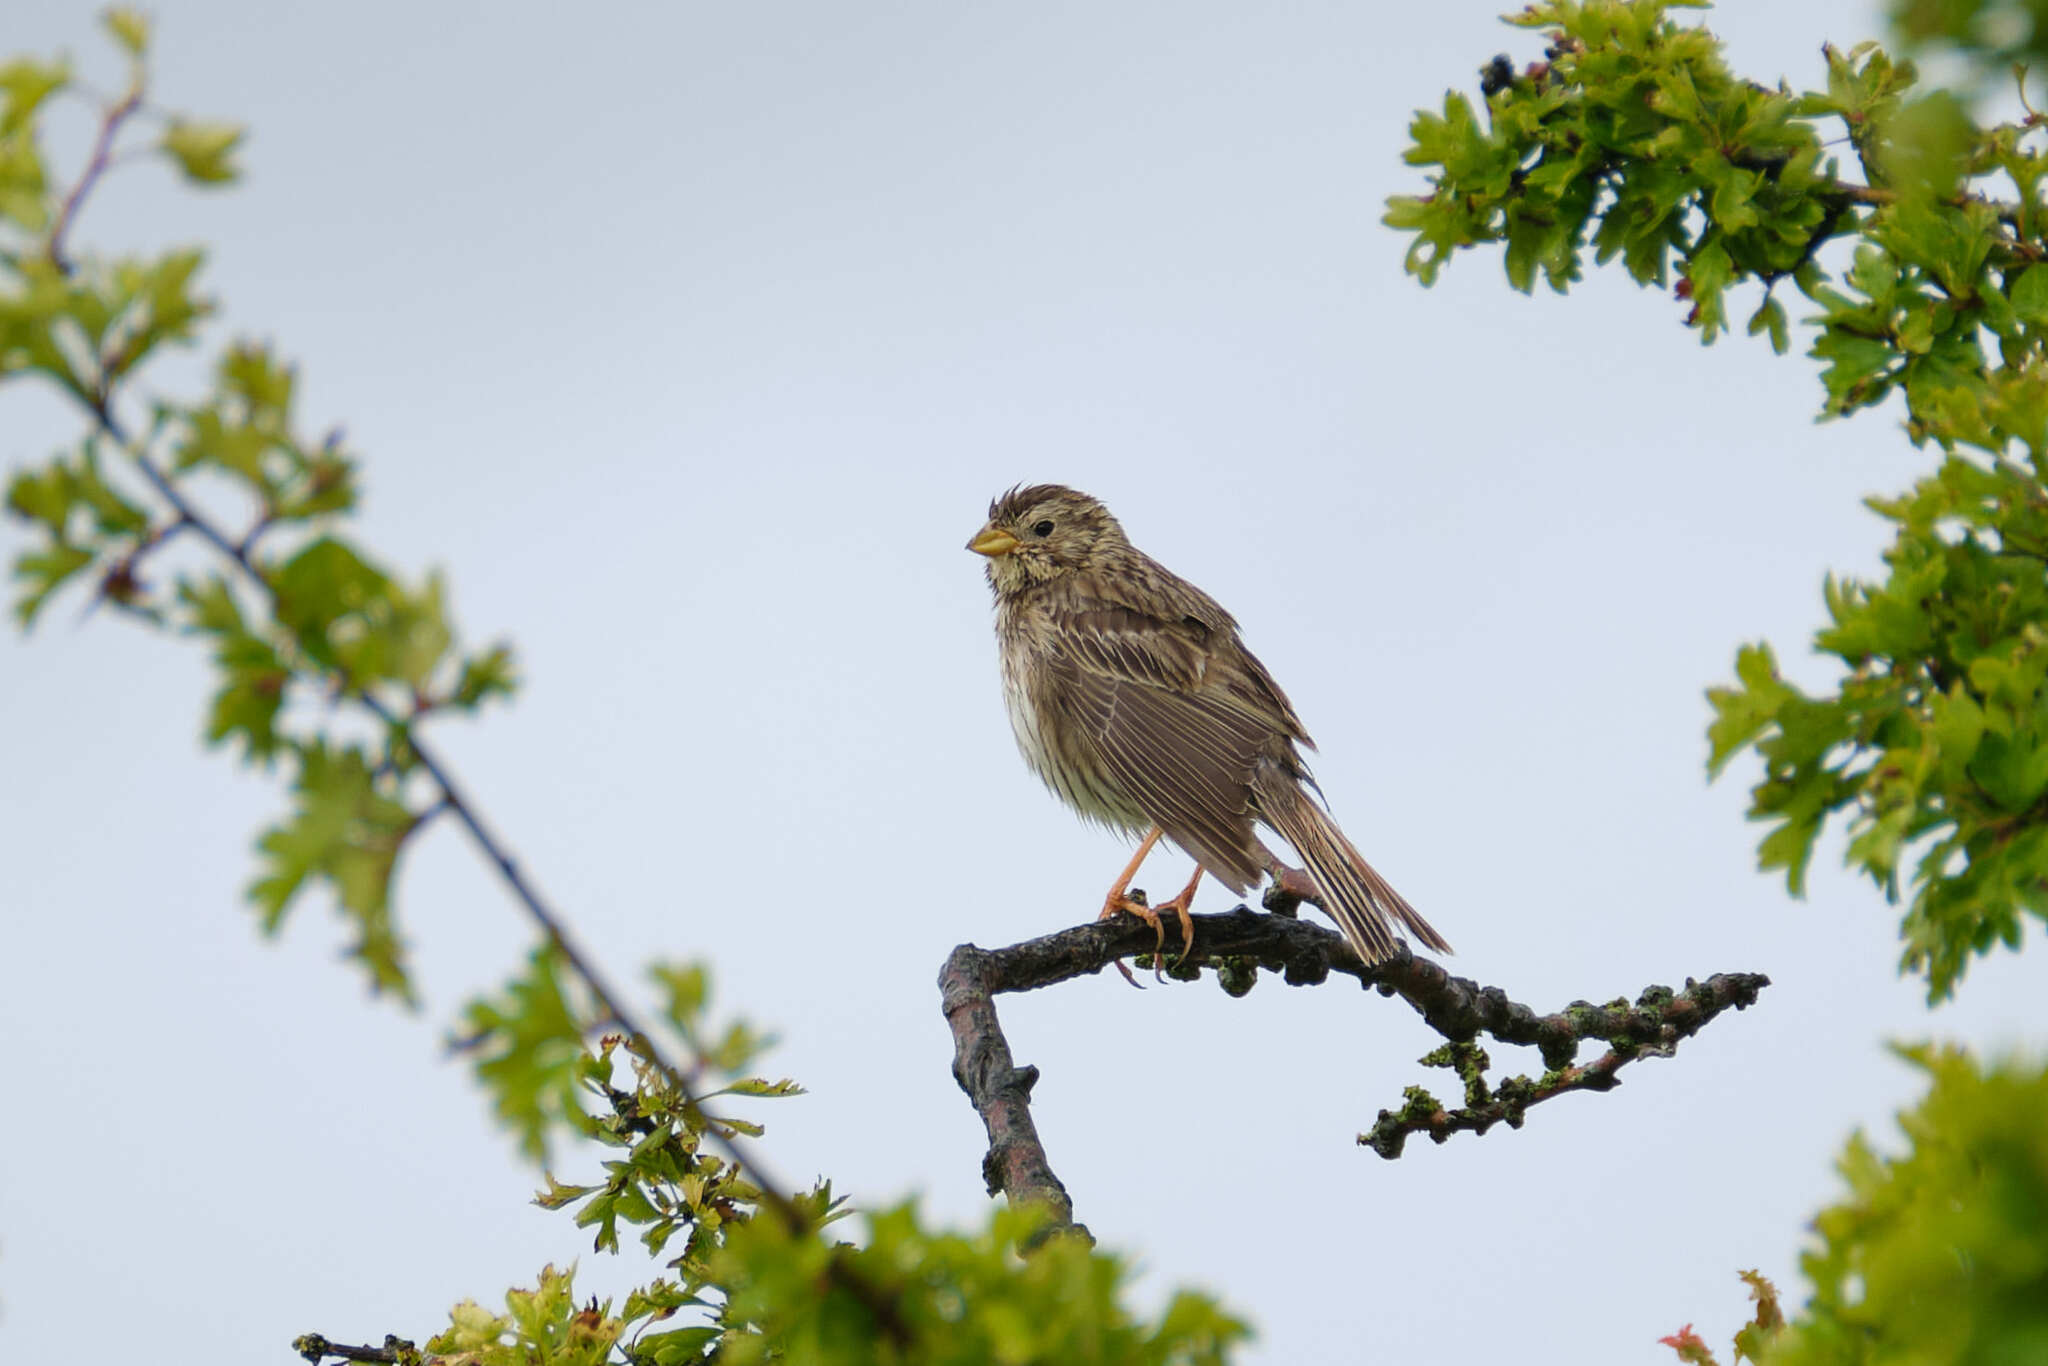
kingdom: Animalia
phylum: Chordata
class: Aves
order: Passeriformes
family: Emberizidae
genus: Emberiza
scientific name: Emberiza calandra
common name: Corn bunting
